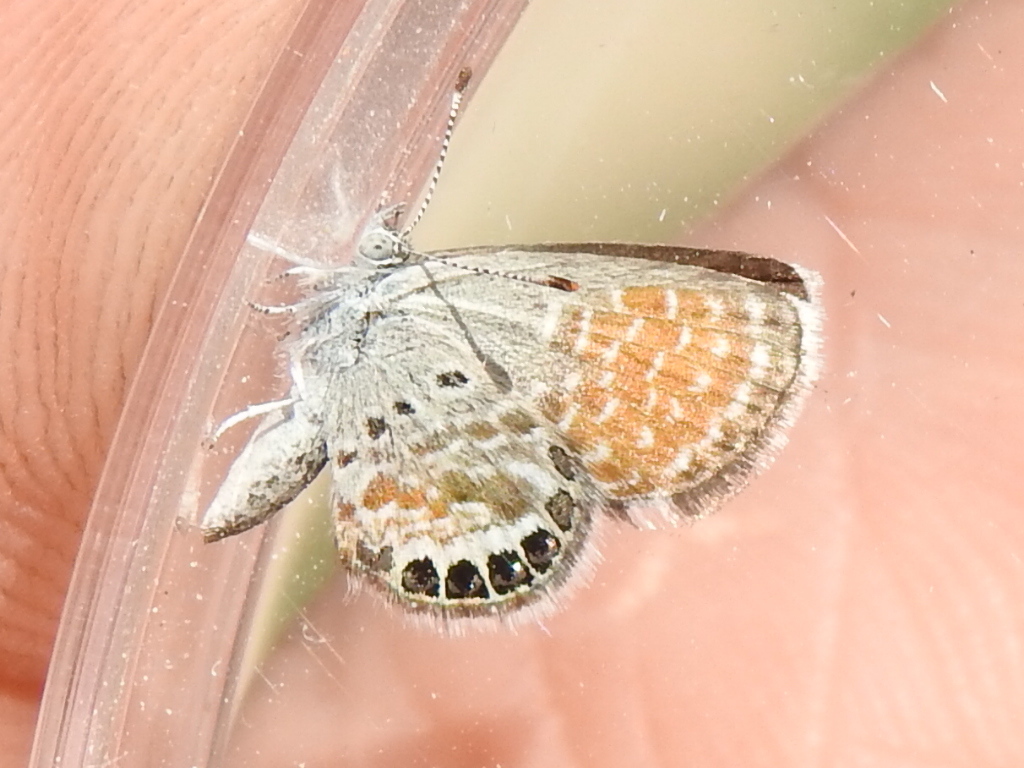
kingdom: Animalia
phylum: Arthropoda
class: Insecta
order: Lepidoptera
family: Lycaenidae
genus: Brephidium
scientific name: Brephidium exilis
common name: Pygmy blue
